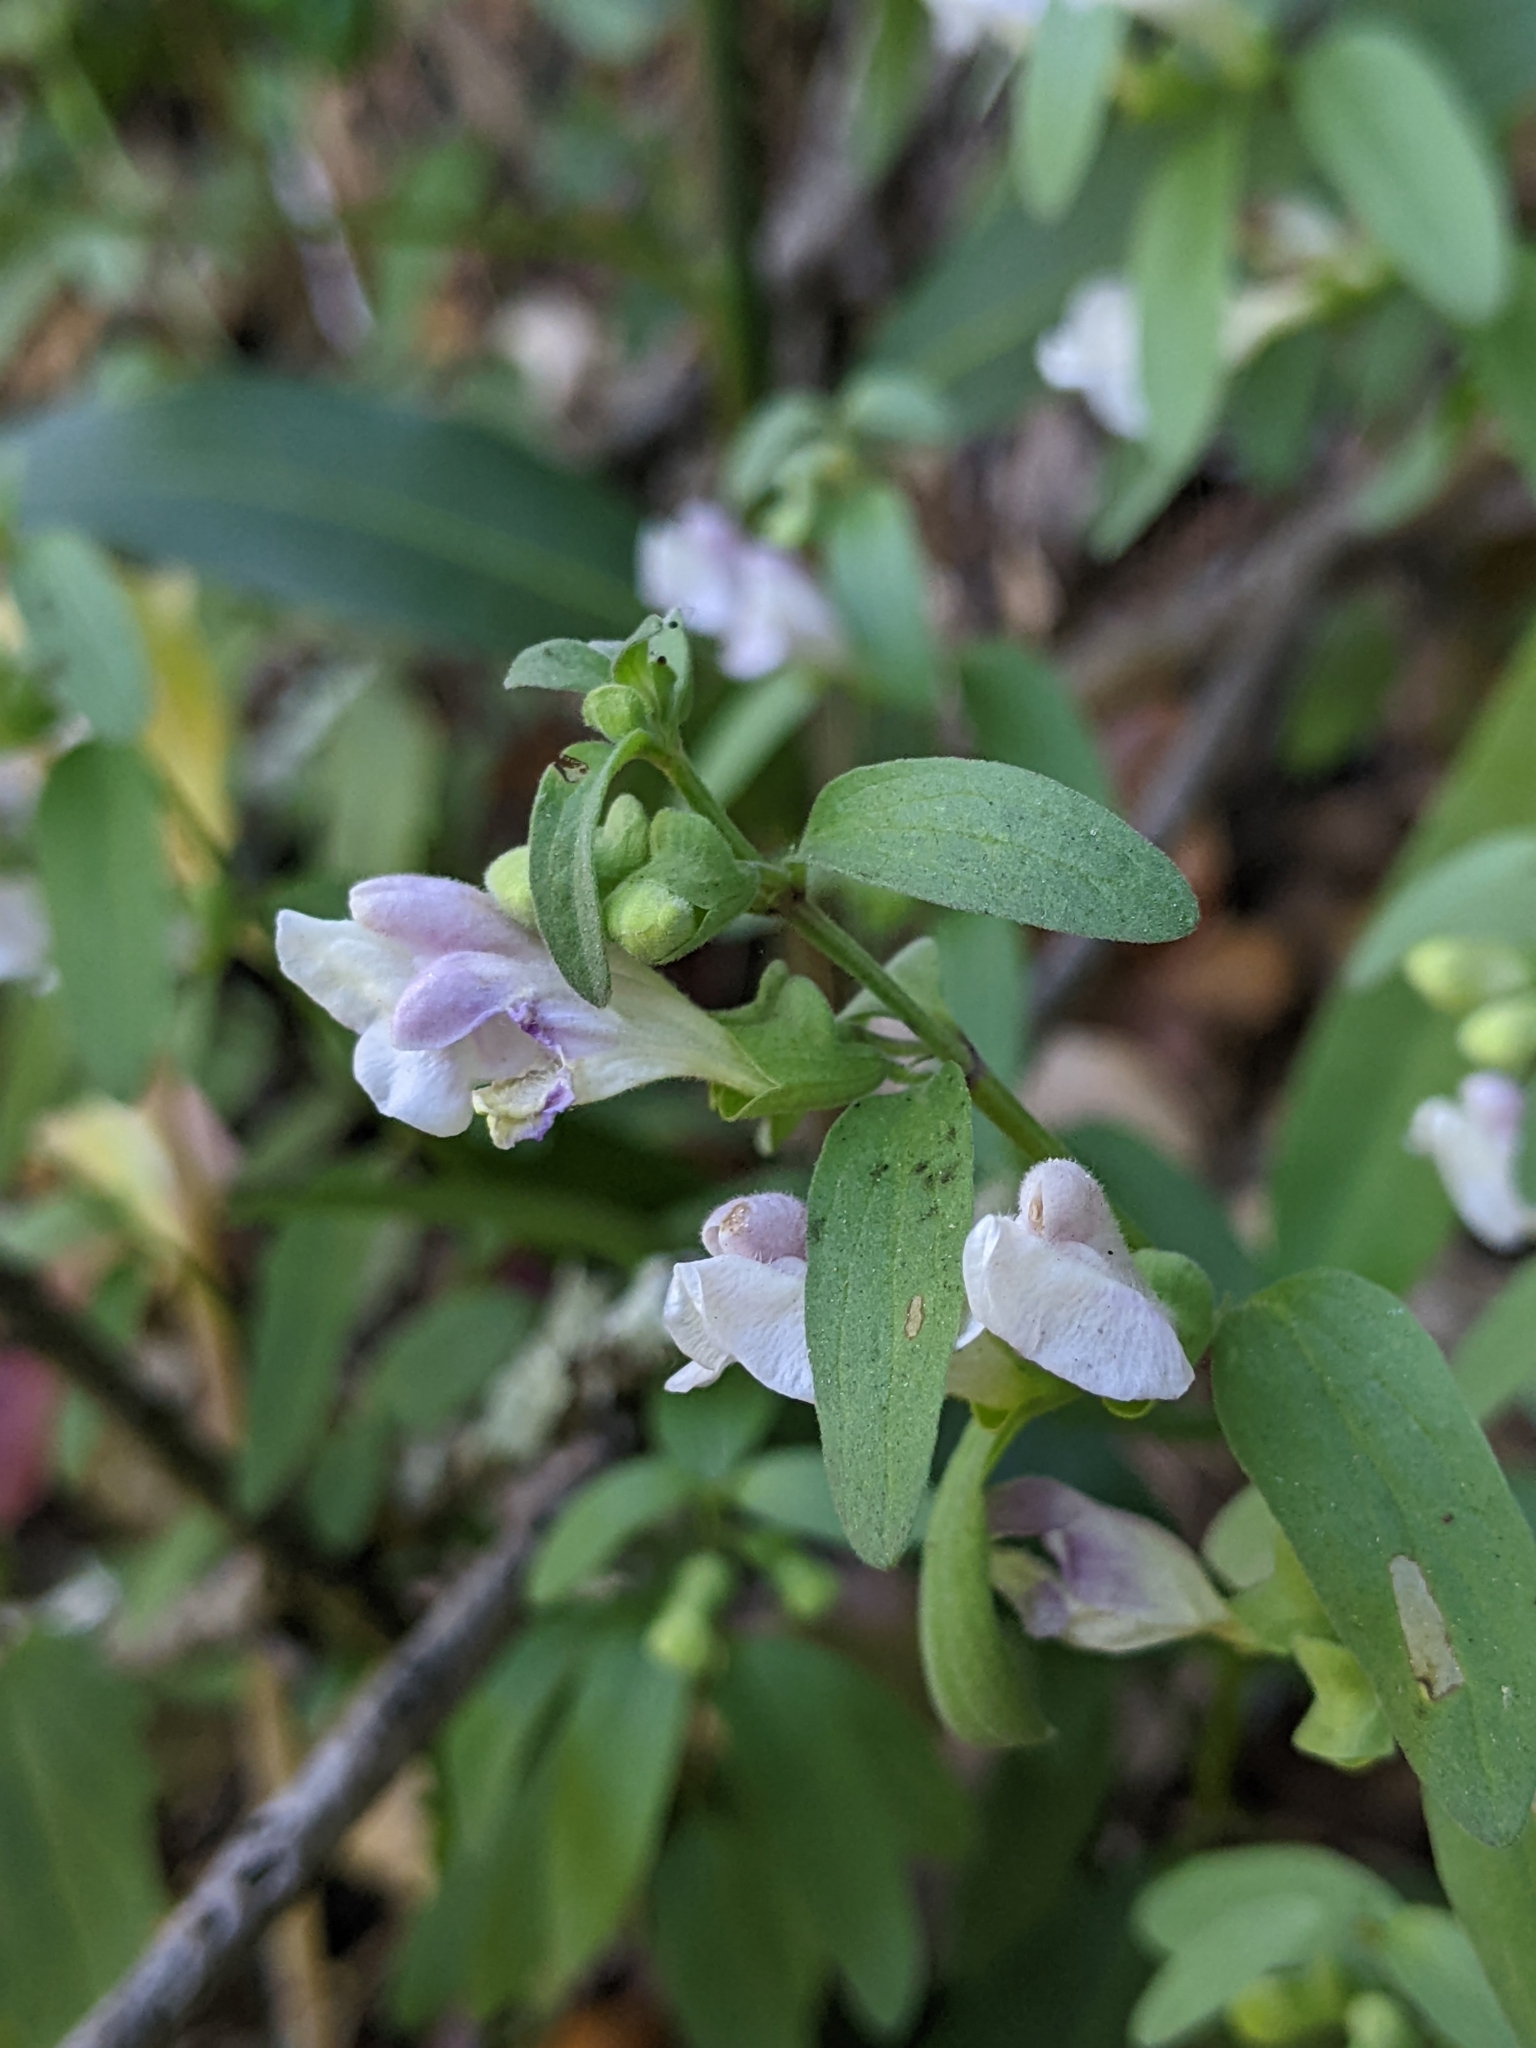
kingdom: Plantae
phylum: Tracheophyta
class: Magnoliopsida
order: Lamiales
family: Lamiaceae
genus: Scutellaria
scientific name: Scutellaria californica
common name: California scullcap
